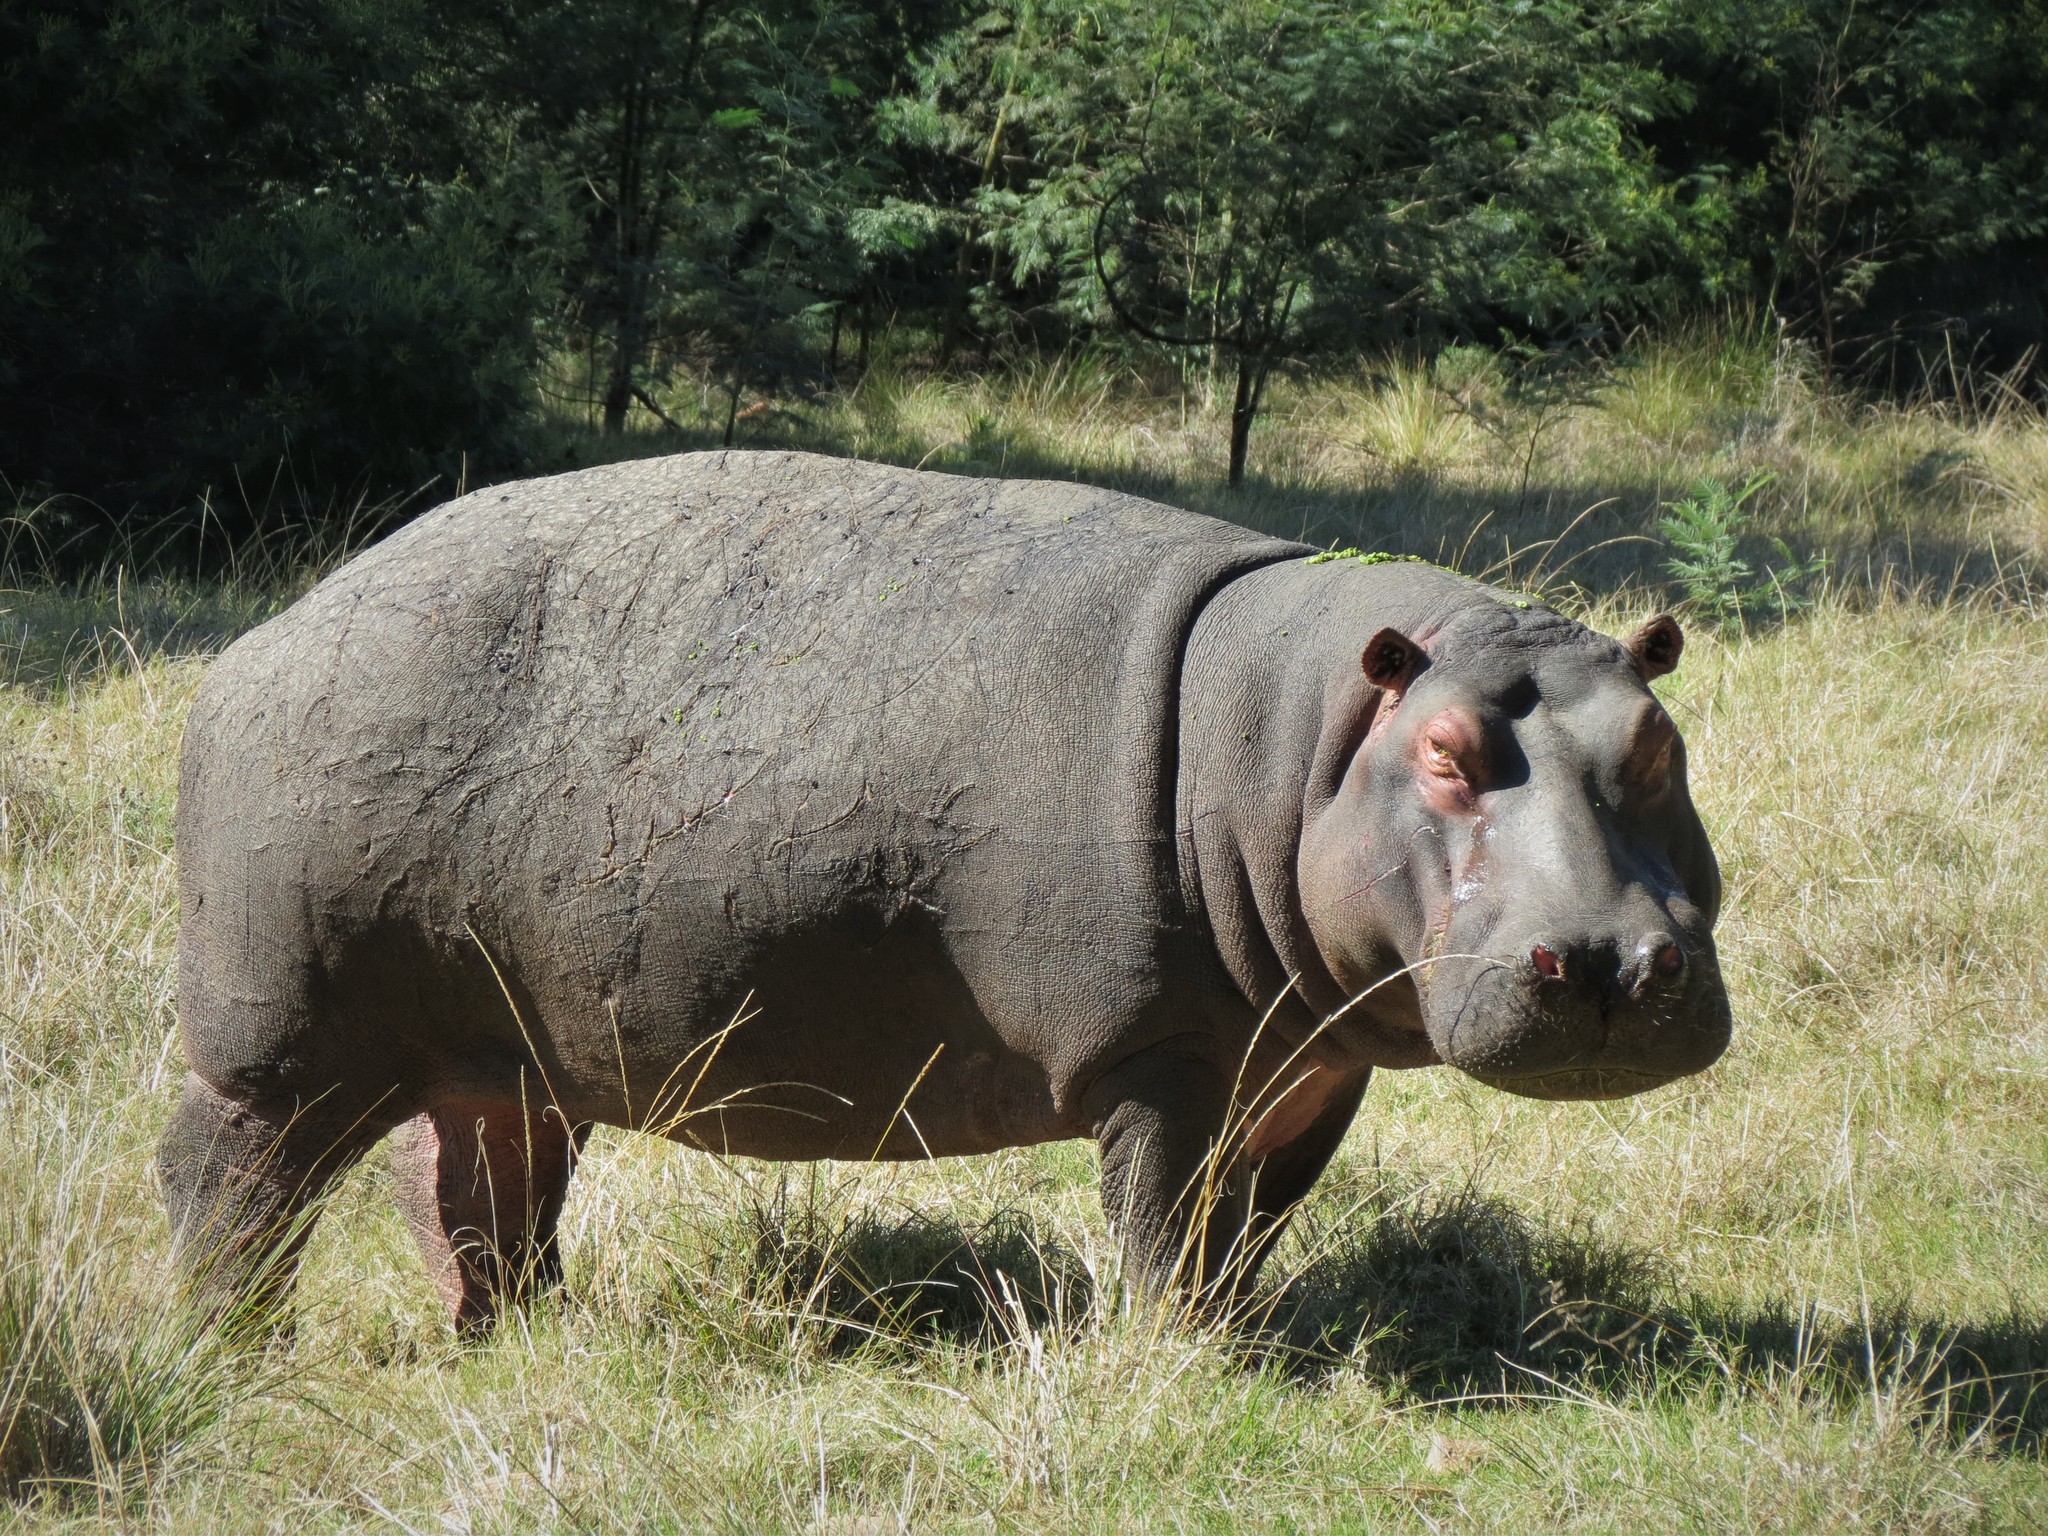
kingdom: Animalia
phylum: Chordata
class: Mammalia
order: Artiodactyla
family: Hippopotamidae
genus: Hippopotamus
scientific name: Hippopotamus amphibius
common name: Common hippopotamus
